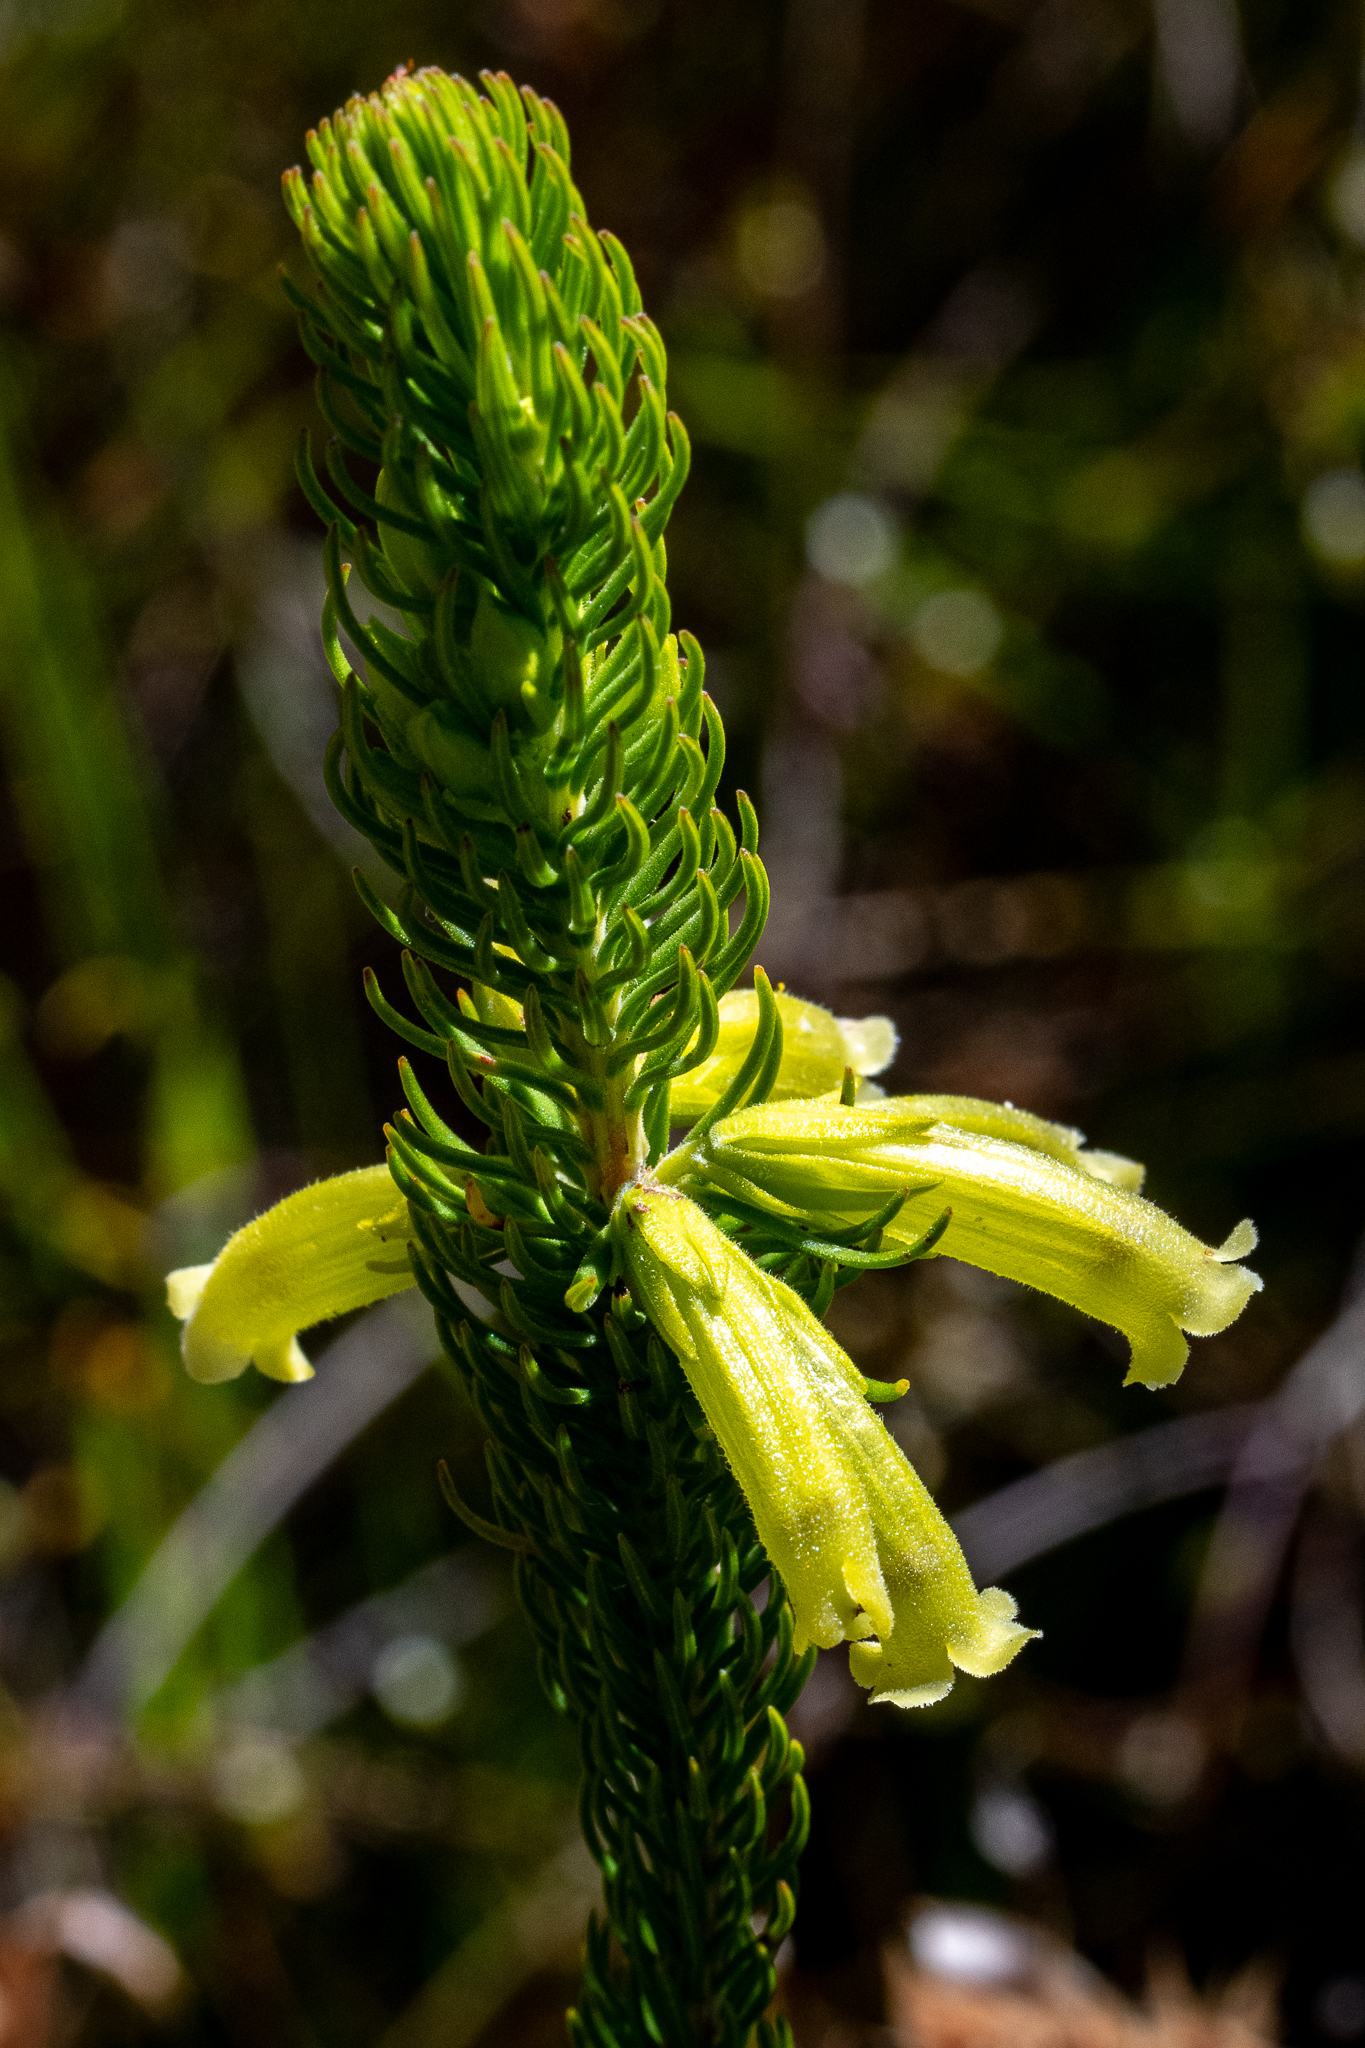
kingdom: Plantae
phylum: Tracheophyta
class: Magnoliopsida
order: Ericales
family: Ericaceae
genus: Erica
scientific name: Erica viscaria
